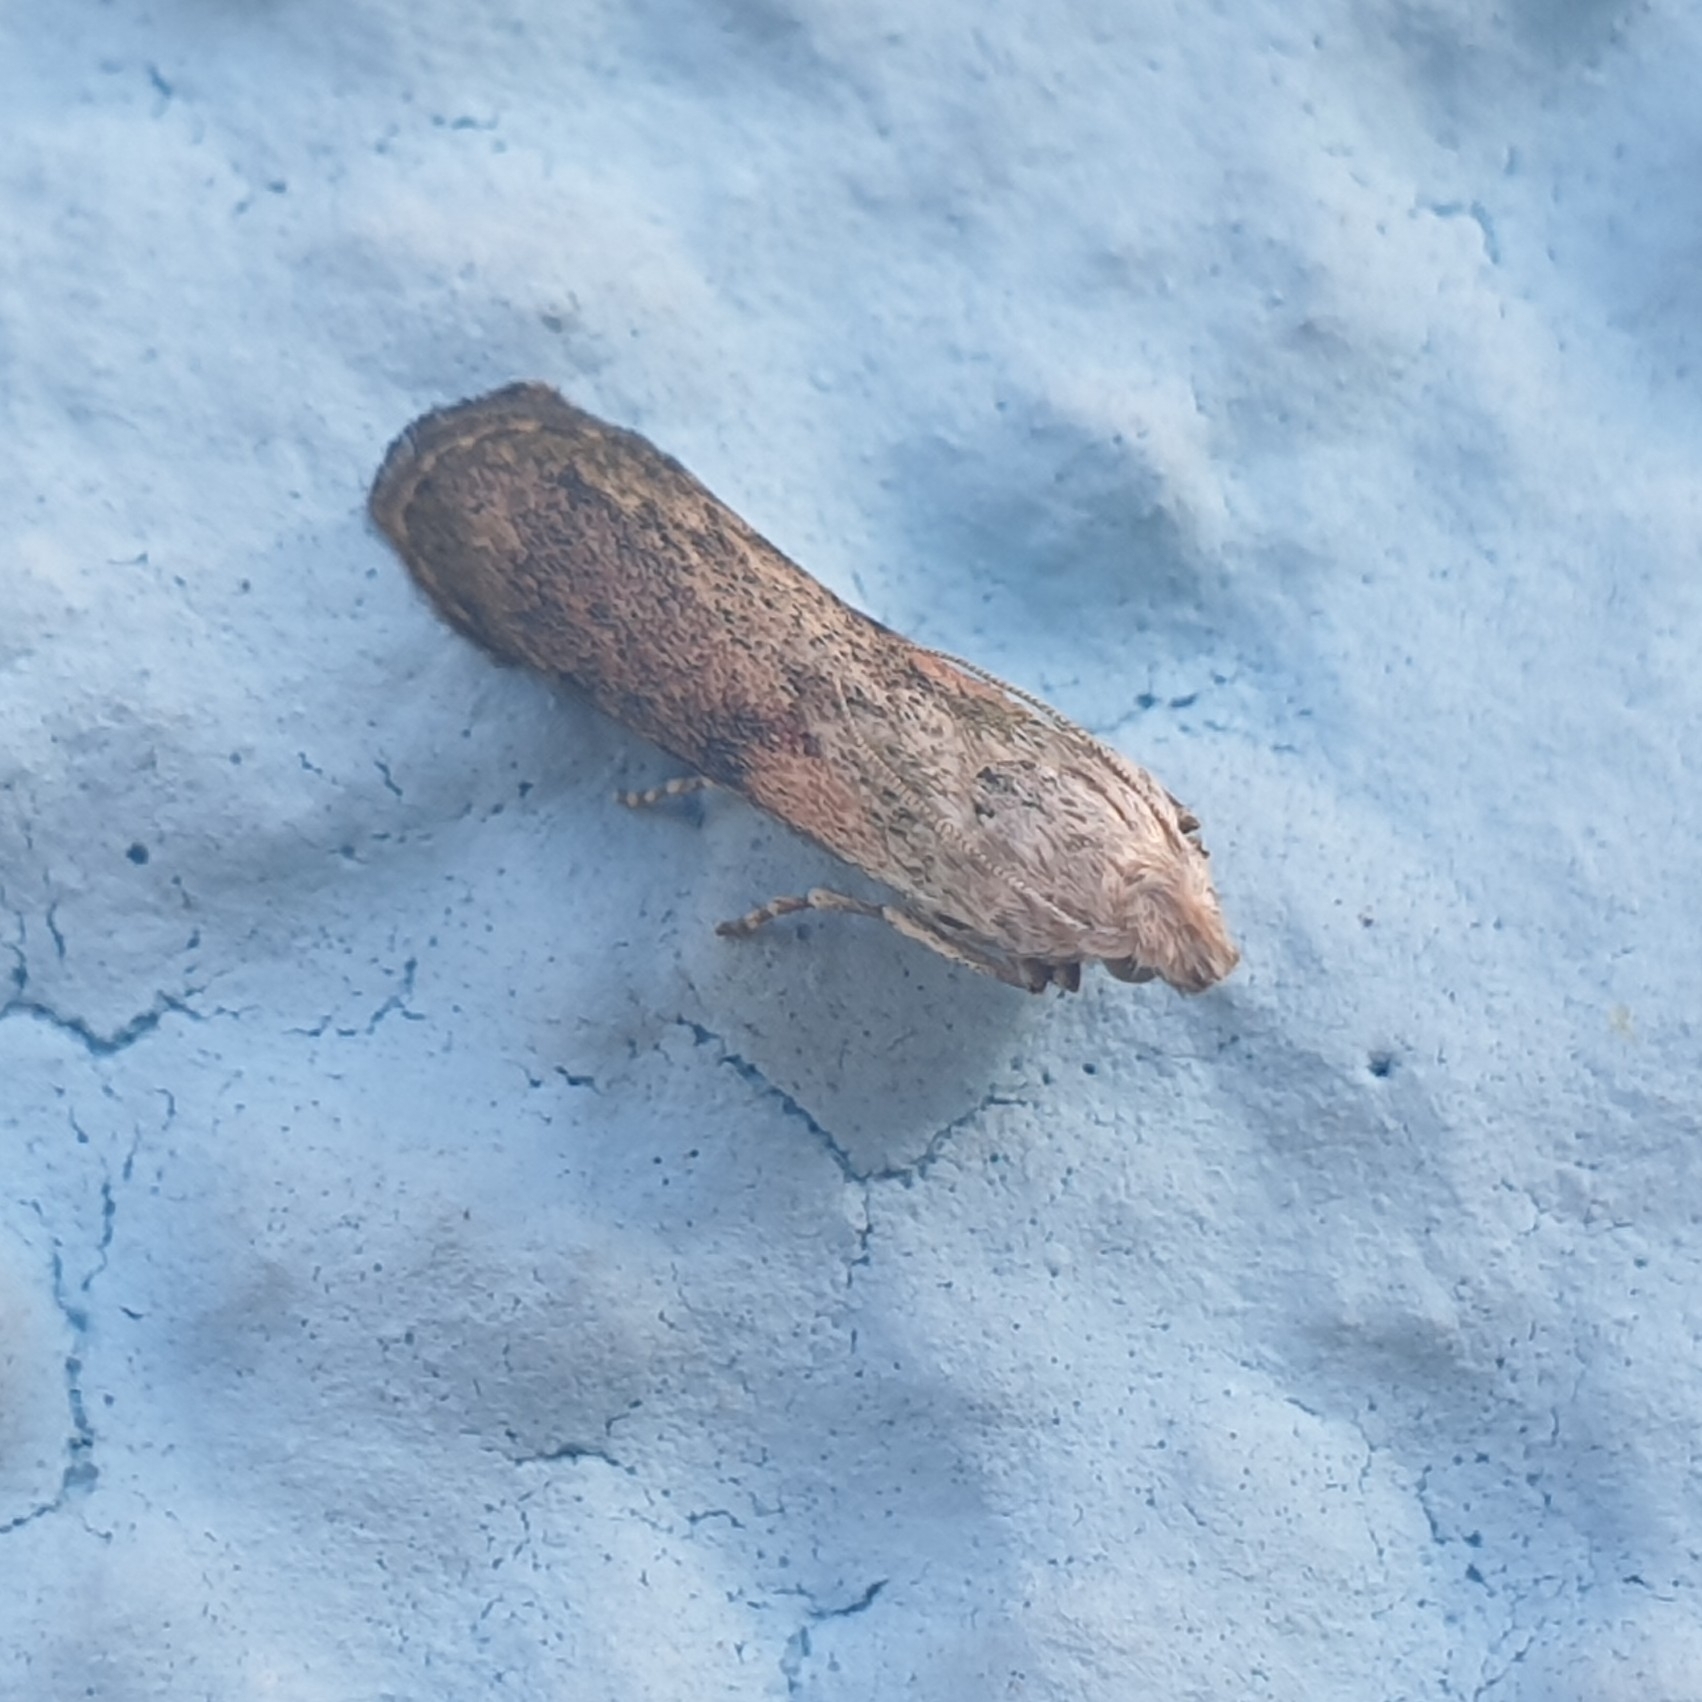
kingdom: Animalia
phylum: Arthropoda
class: Insecta
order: Lepidoptera
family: Pyralidae
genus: Aphomia
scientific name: Aphomia sociella
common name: Bee moth
